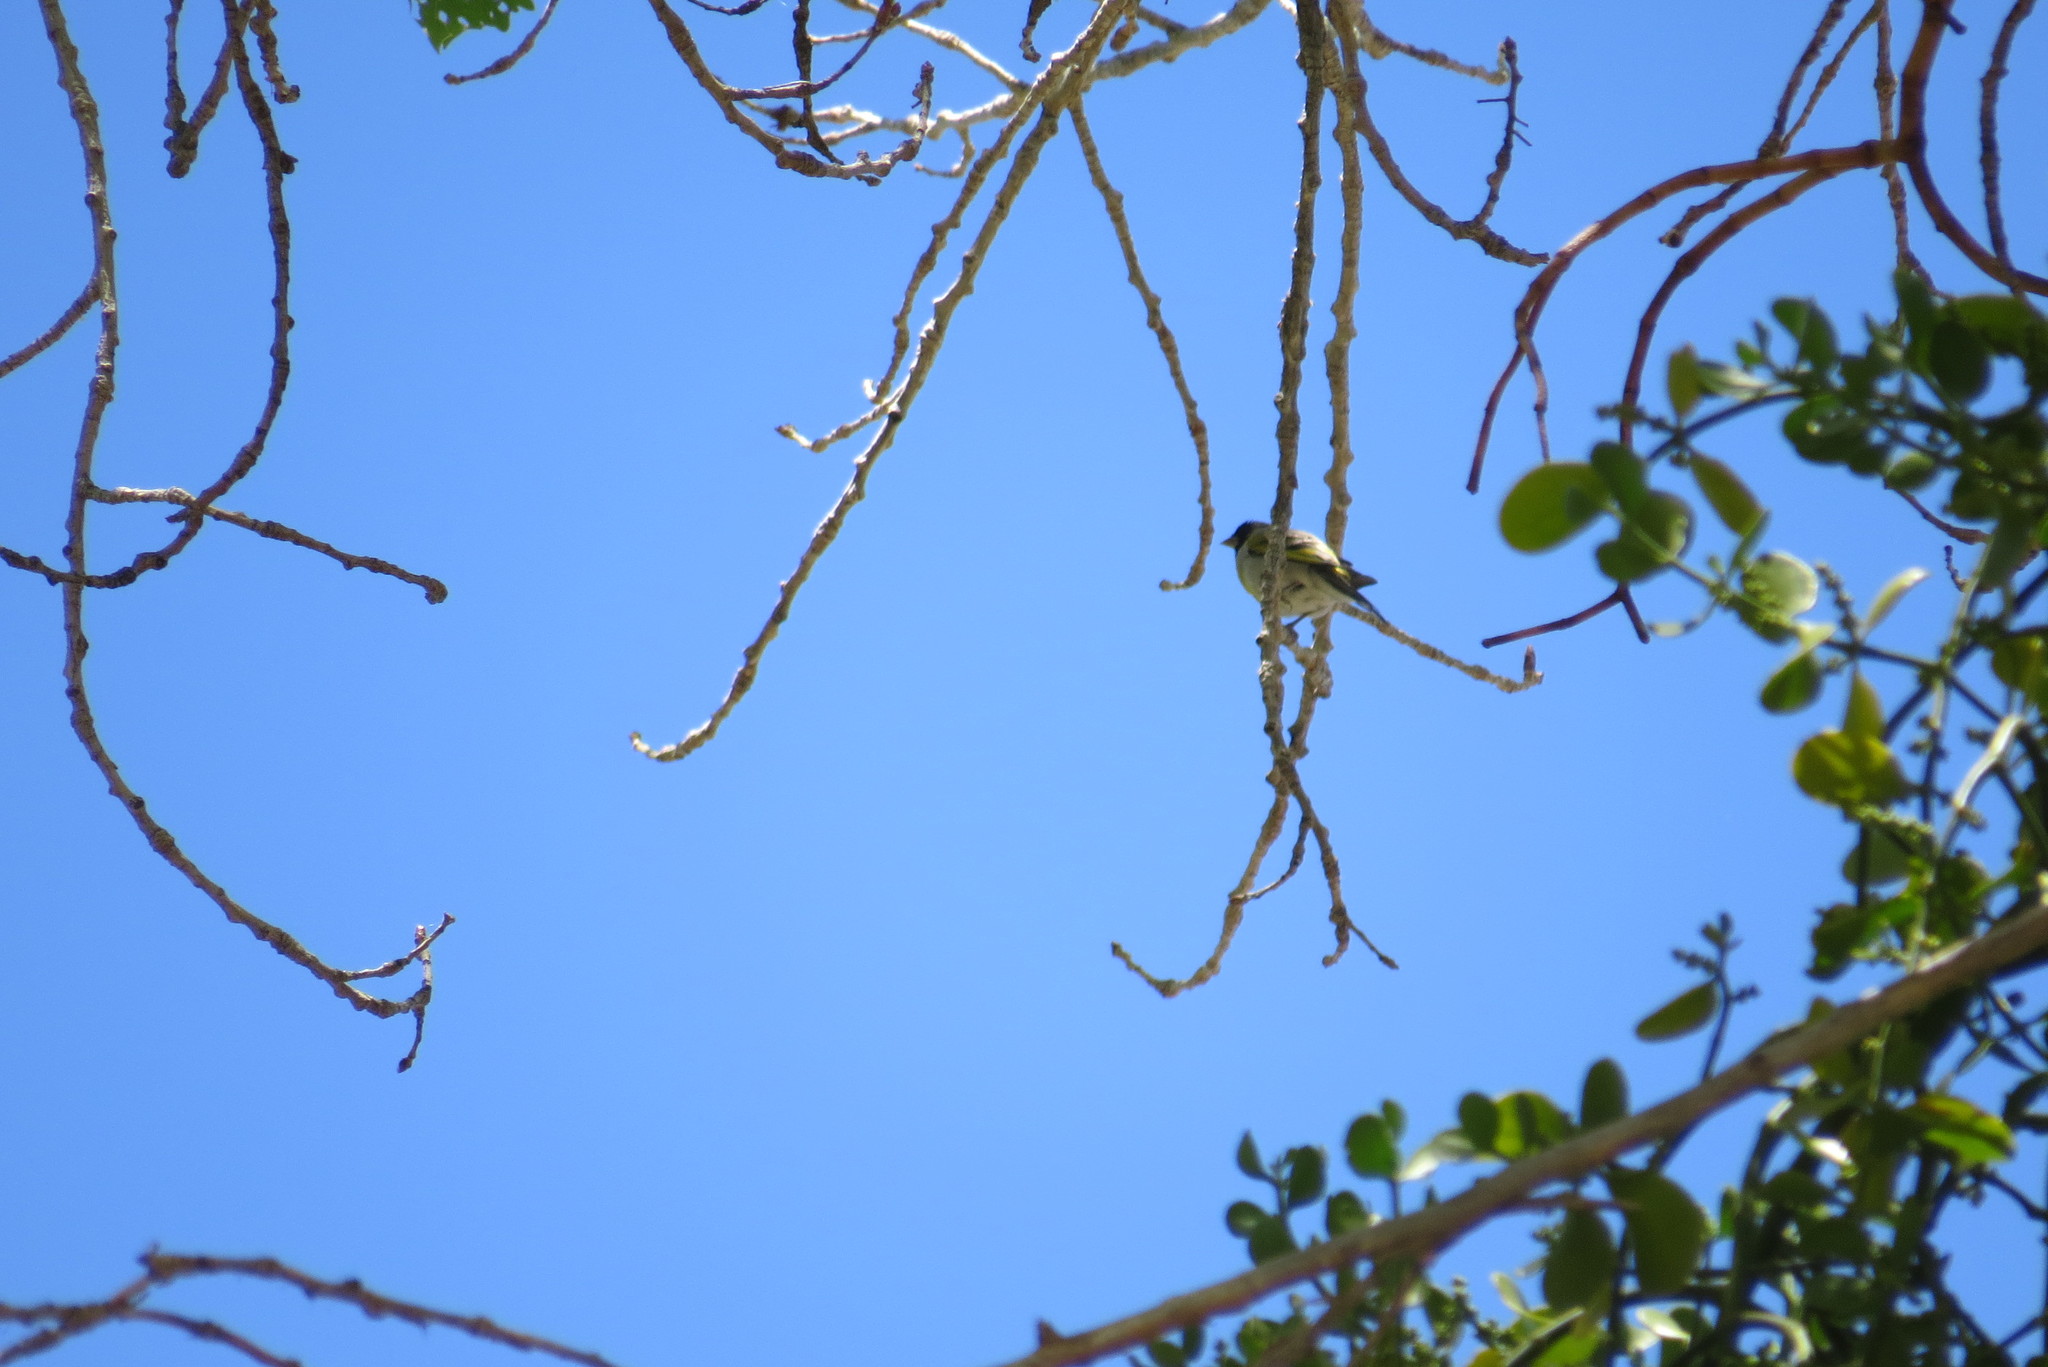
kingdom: Animalia
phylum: Chordata
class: Aves
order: Passeriformes
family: Fringillidae
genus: Spinus
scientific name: Spinus lawrencei
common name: Lawrence's goldfinch
